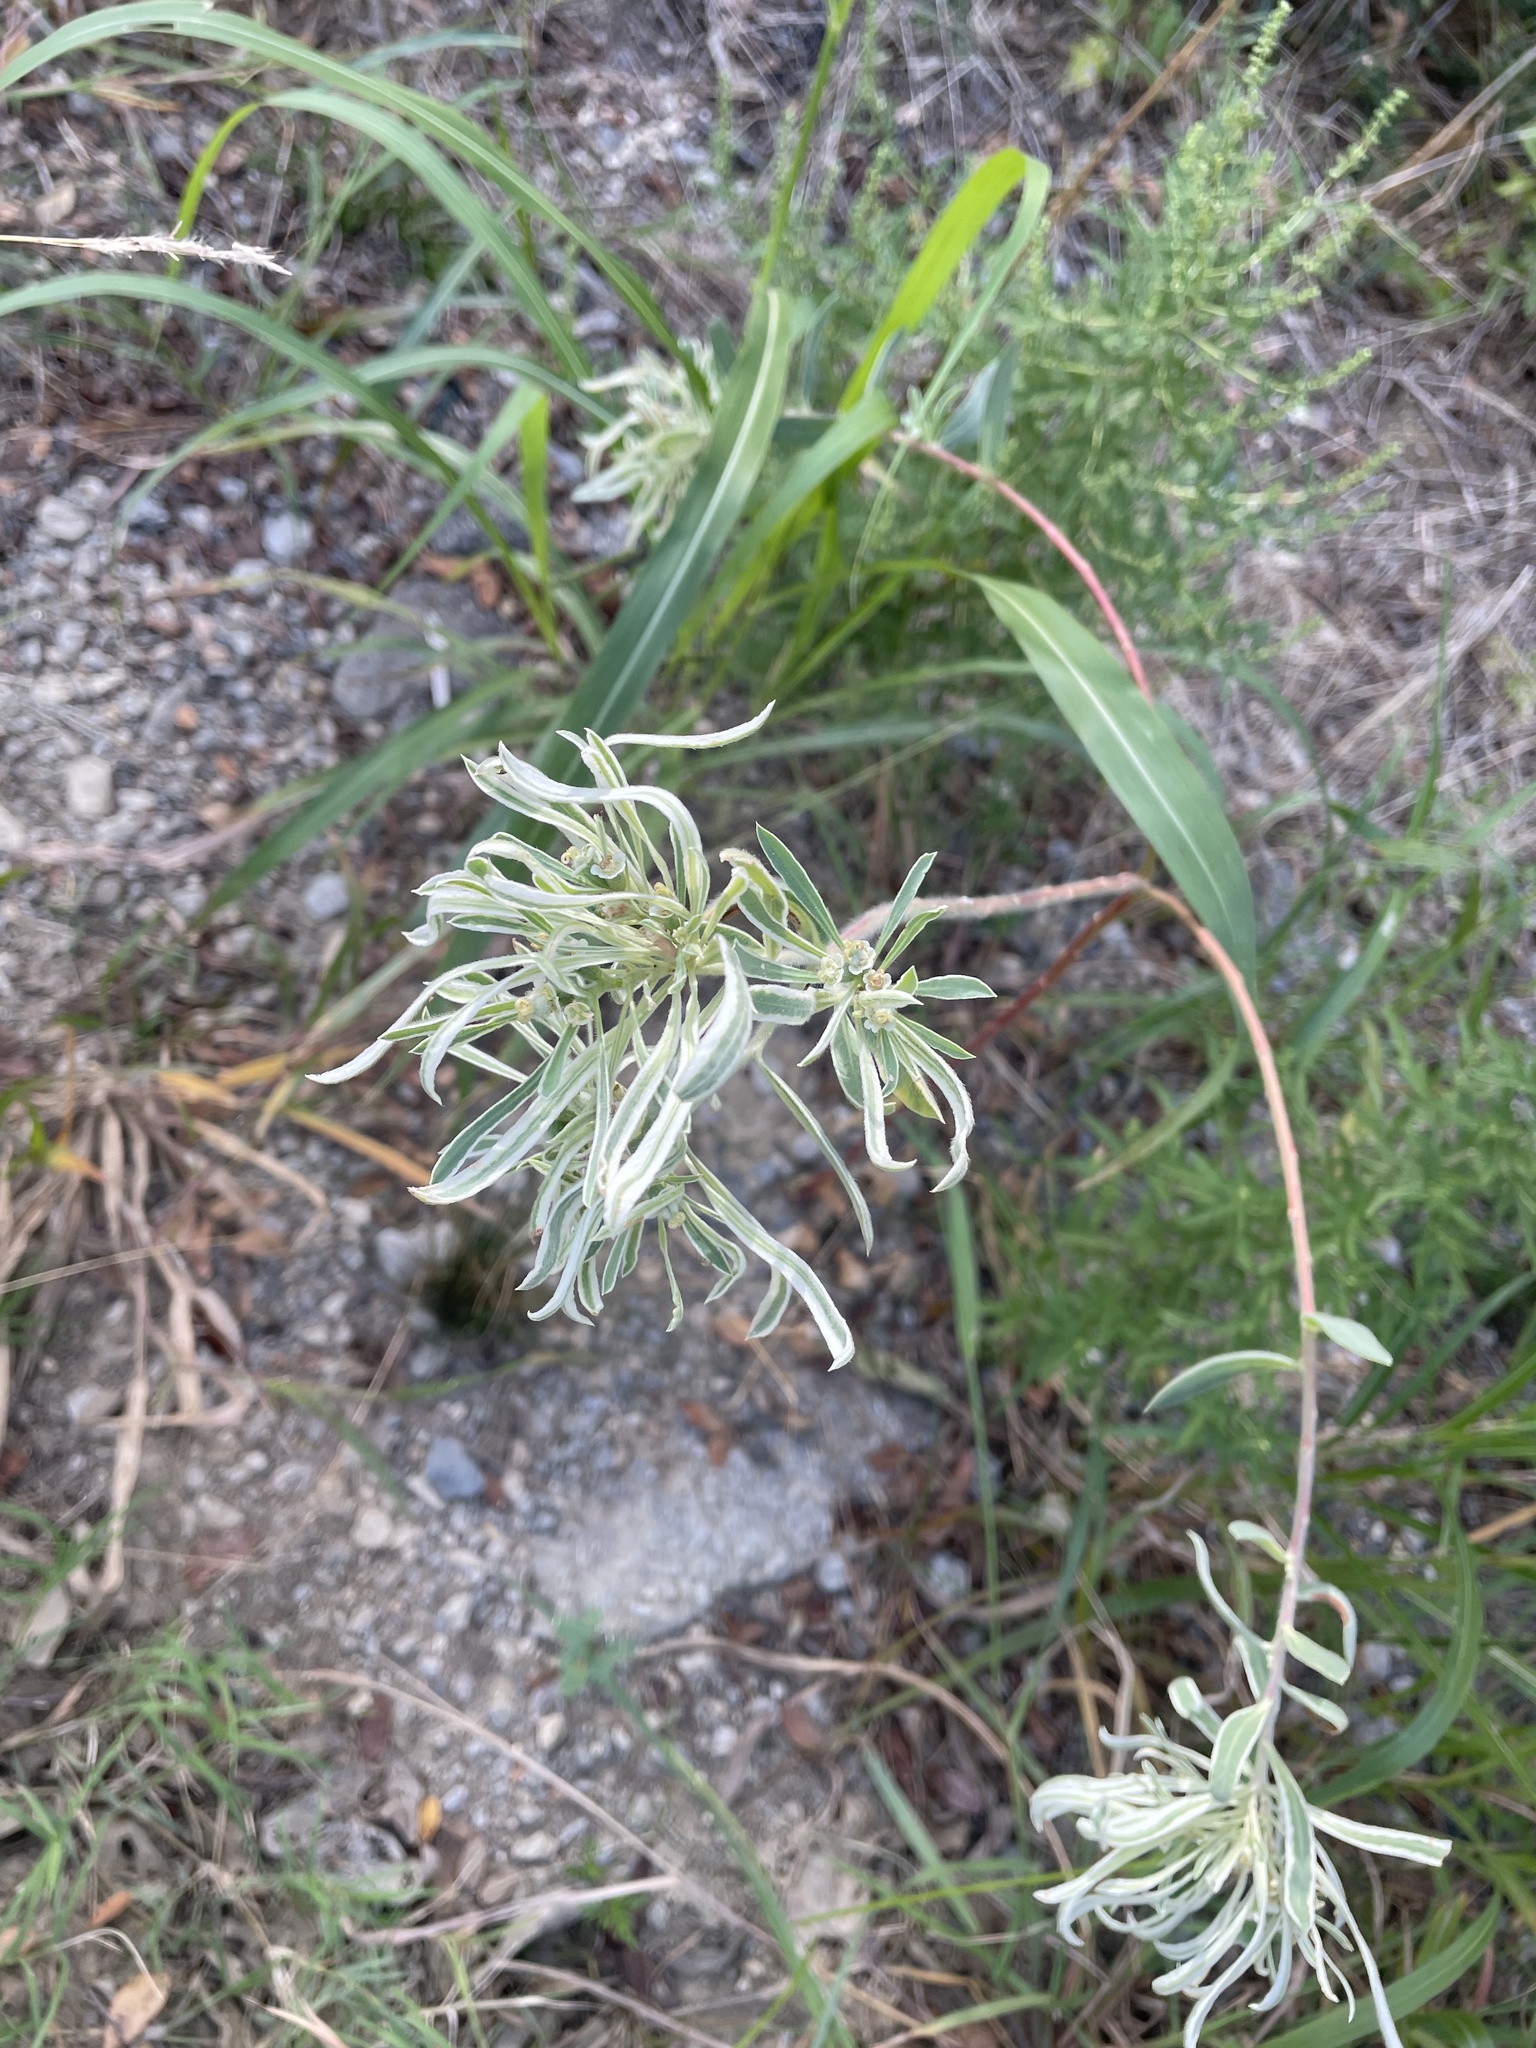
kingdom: Plantae
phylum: Tracheophyta
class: Magnoliopsida
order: Malpighiales
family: Euphorbiaceae
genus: Euphorbia
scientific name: Euphorbia bicolor
